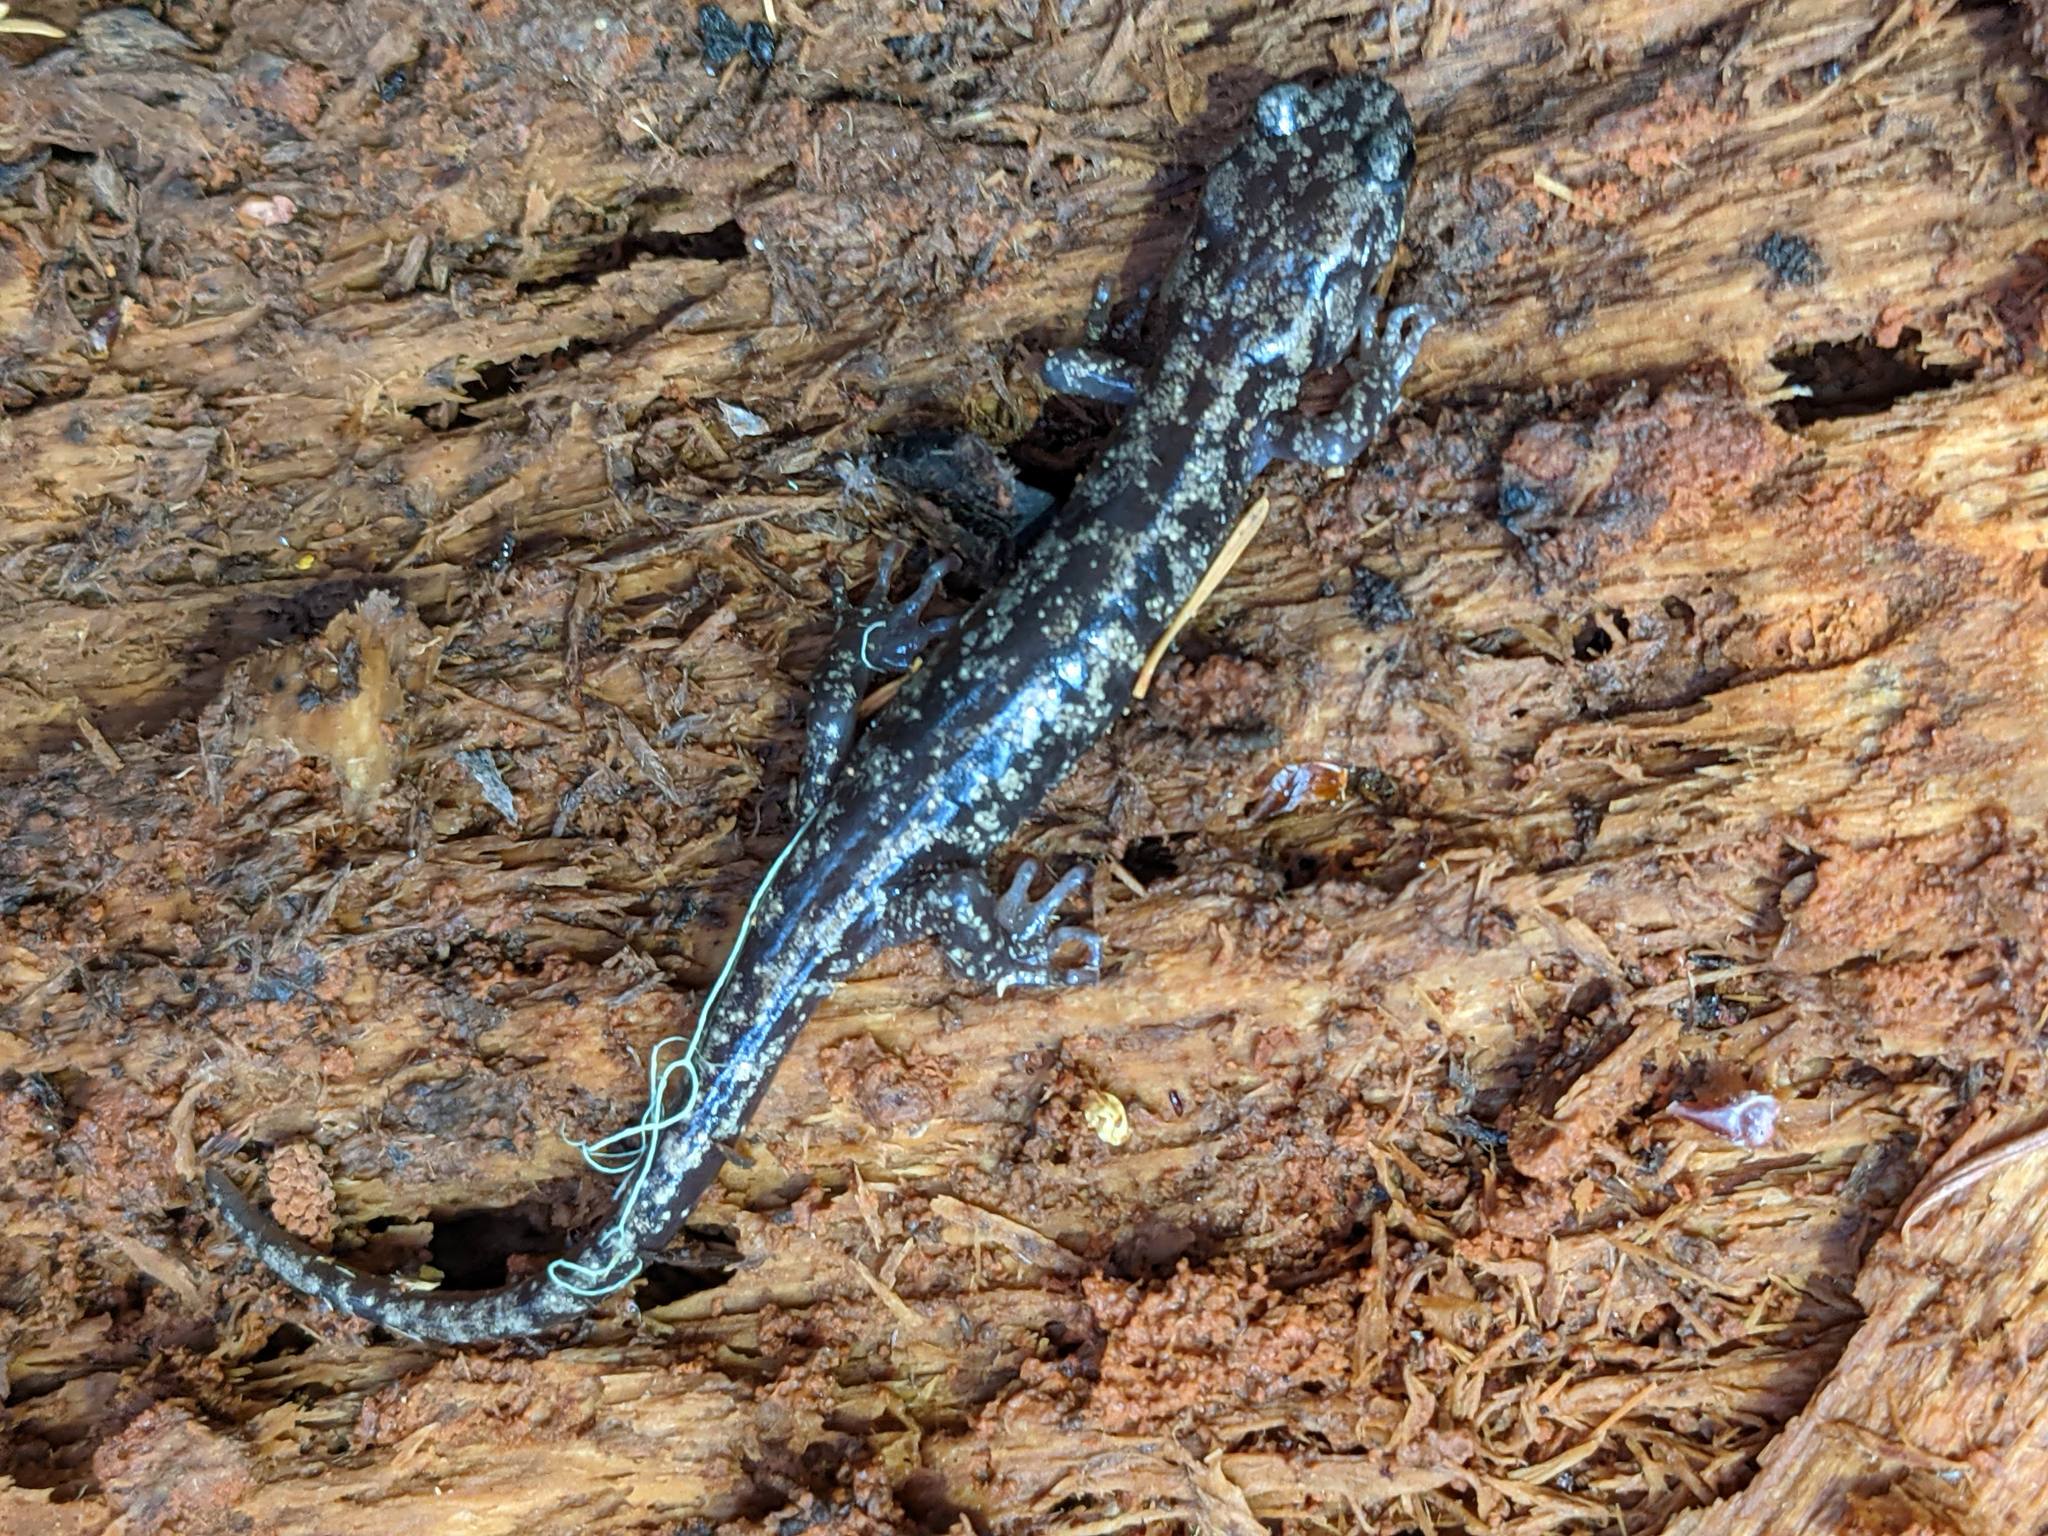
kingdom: Animalia
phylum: Chordata
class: Amphibia
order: Caudata
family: Plethodontidae
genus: Aneides
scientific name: Aneides vagrans
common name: Wandering salamander
